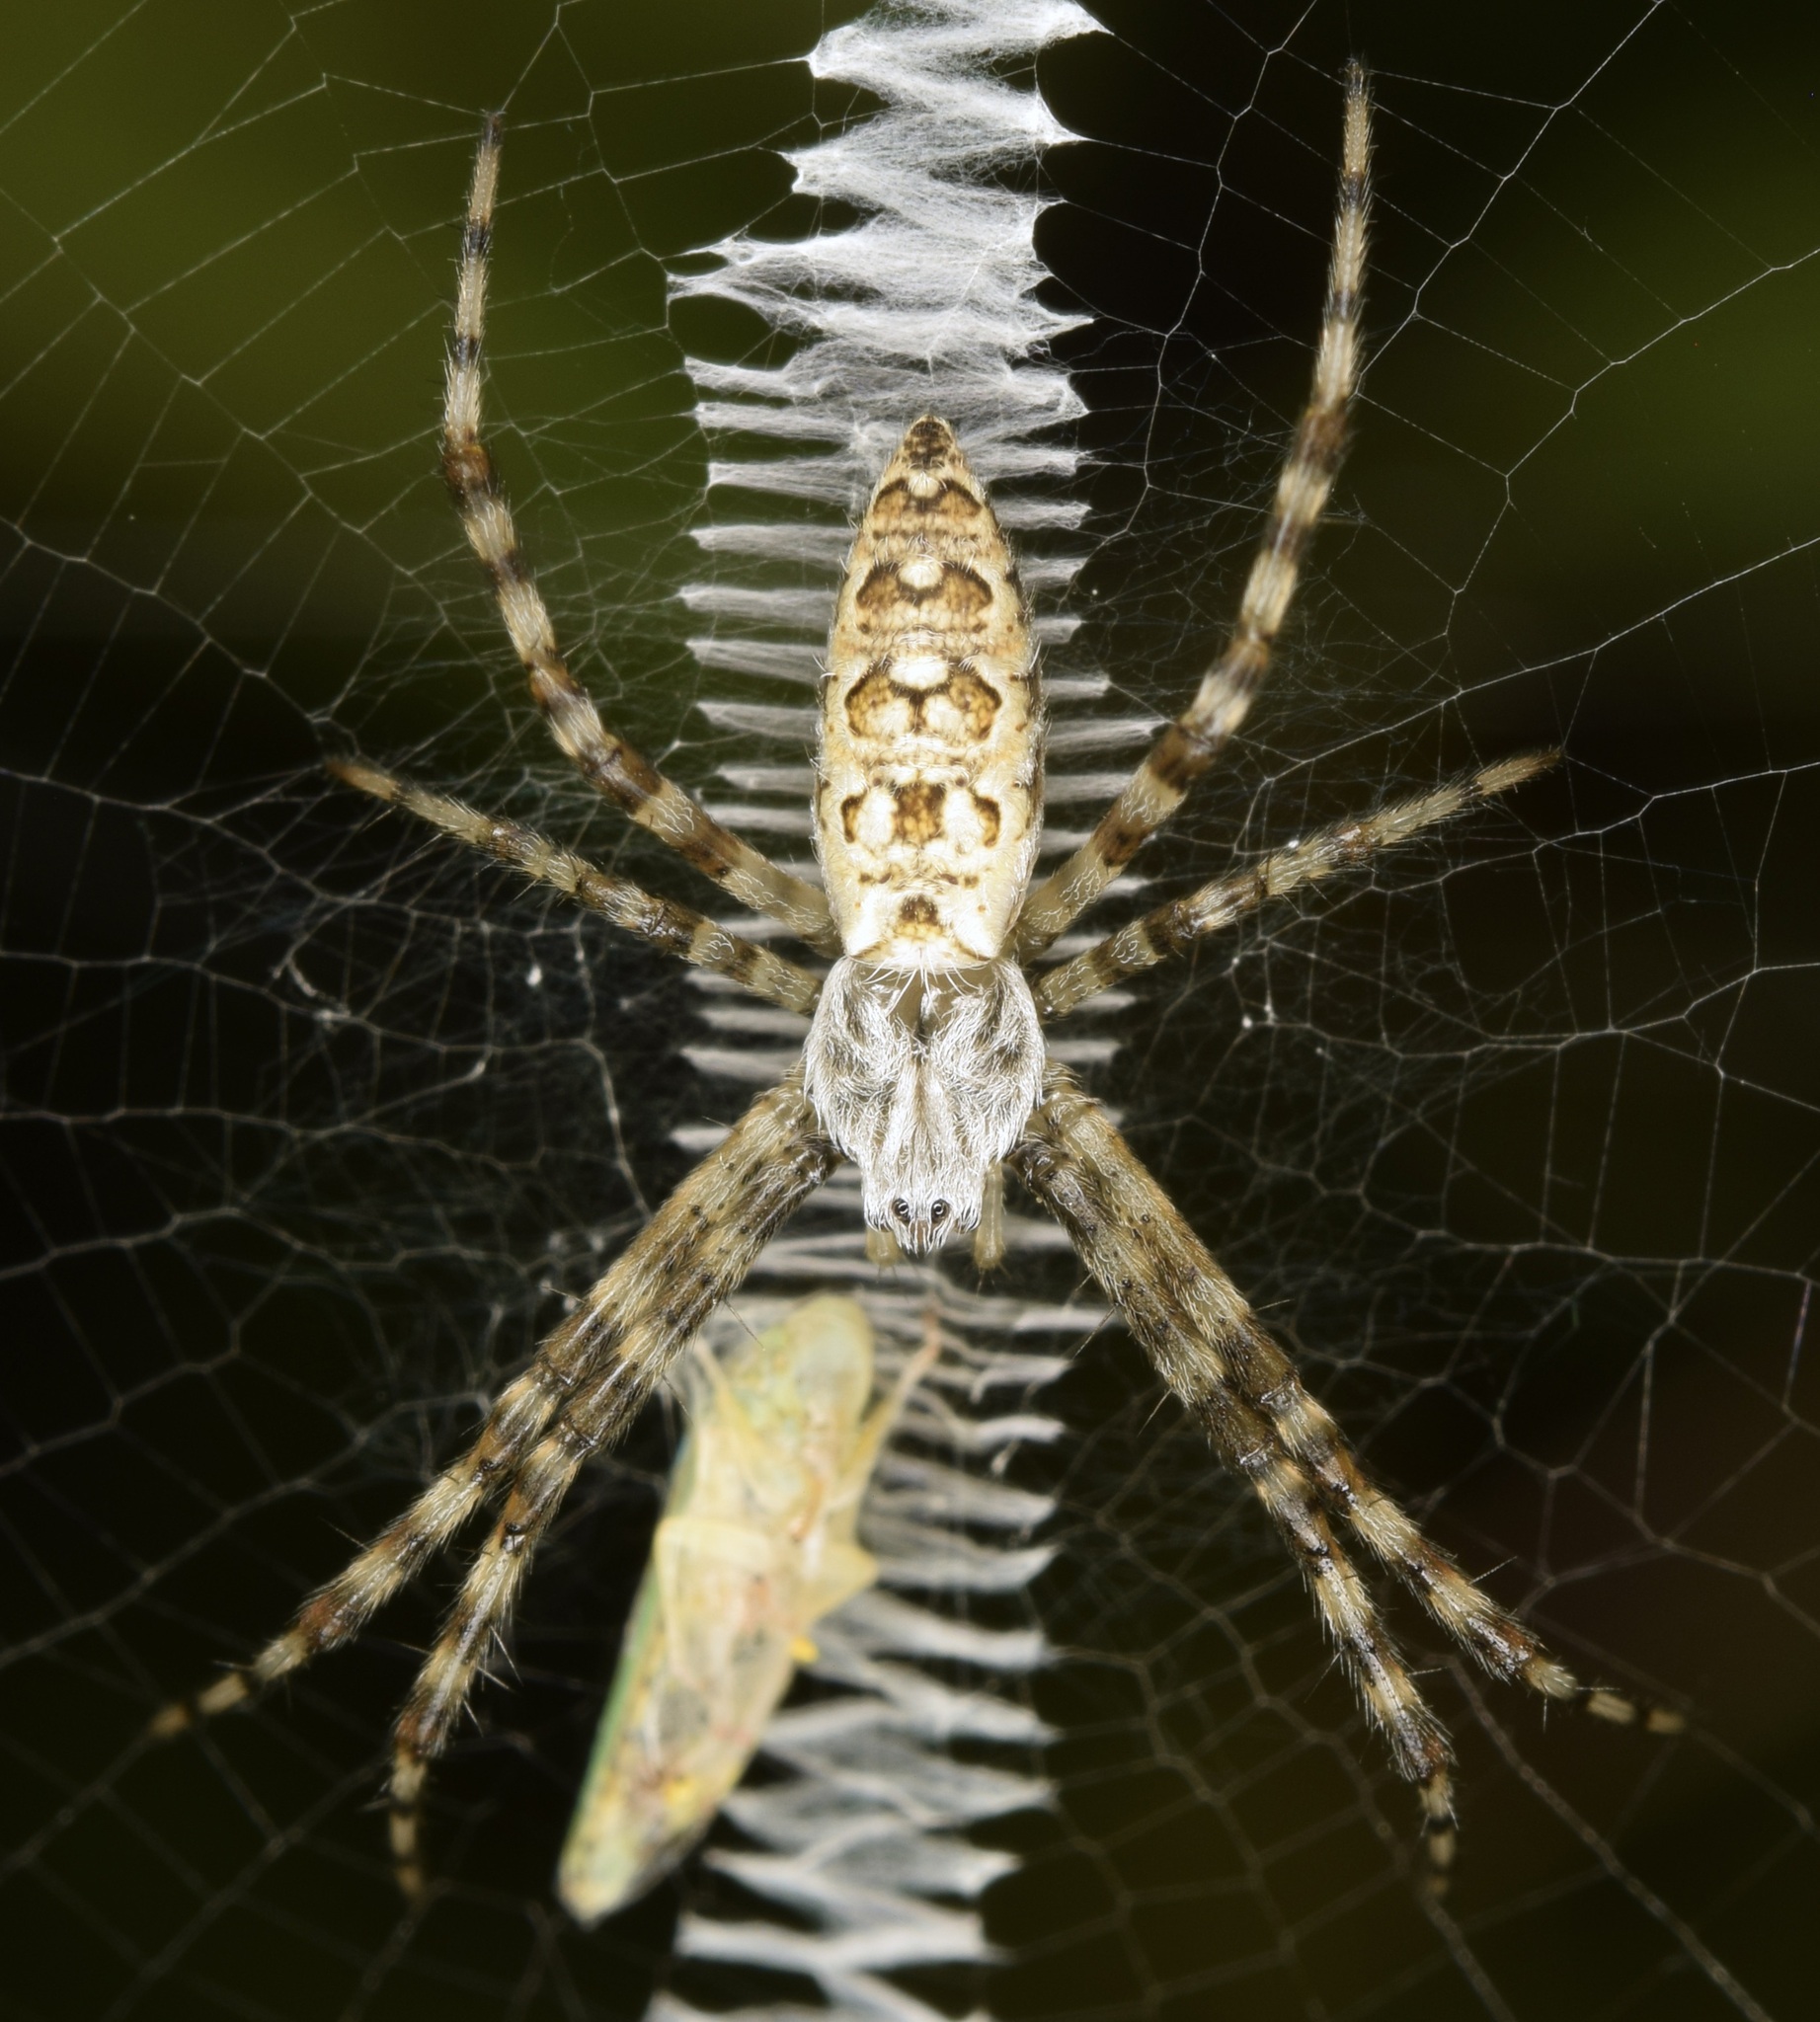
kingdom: Animalia
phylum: Arthropoda
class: Arachnida
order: Araneae
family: Araneidae
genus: Argiope
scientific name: Argiope aurantia
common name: Orb weavers
